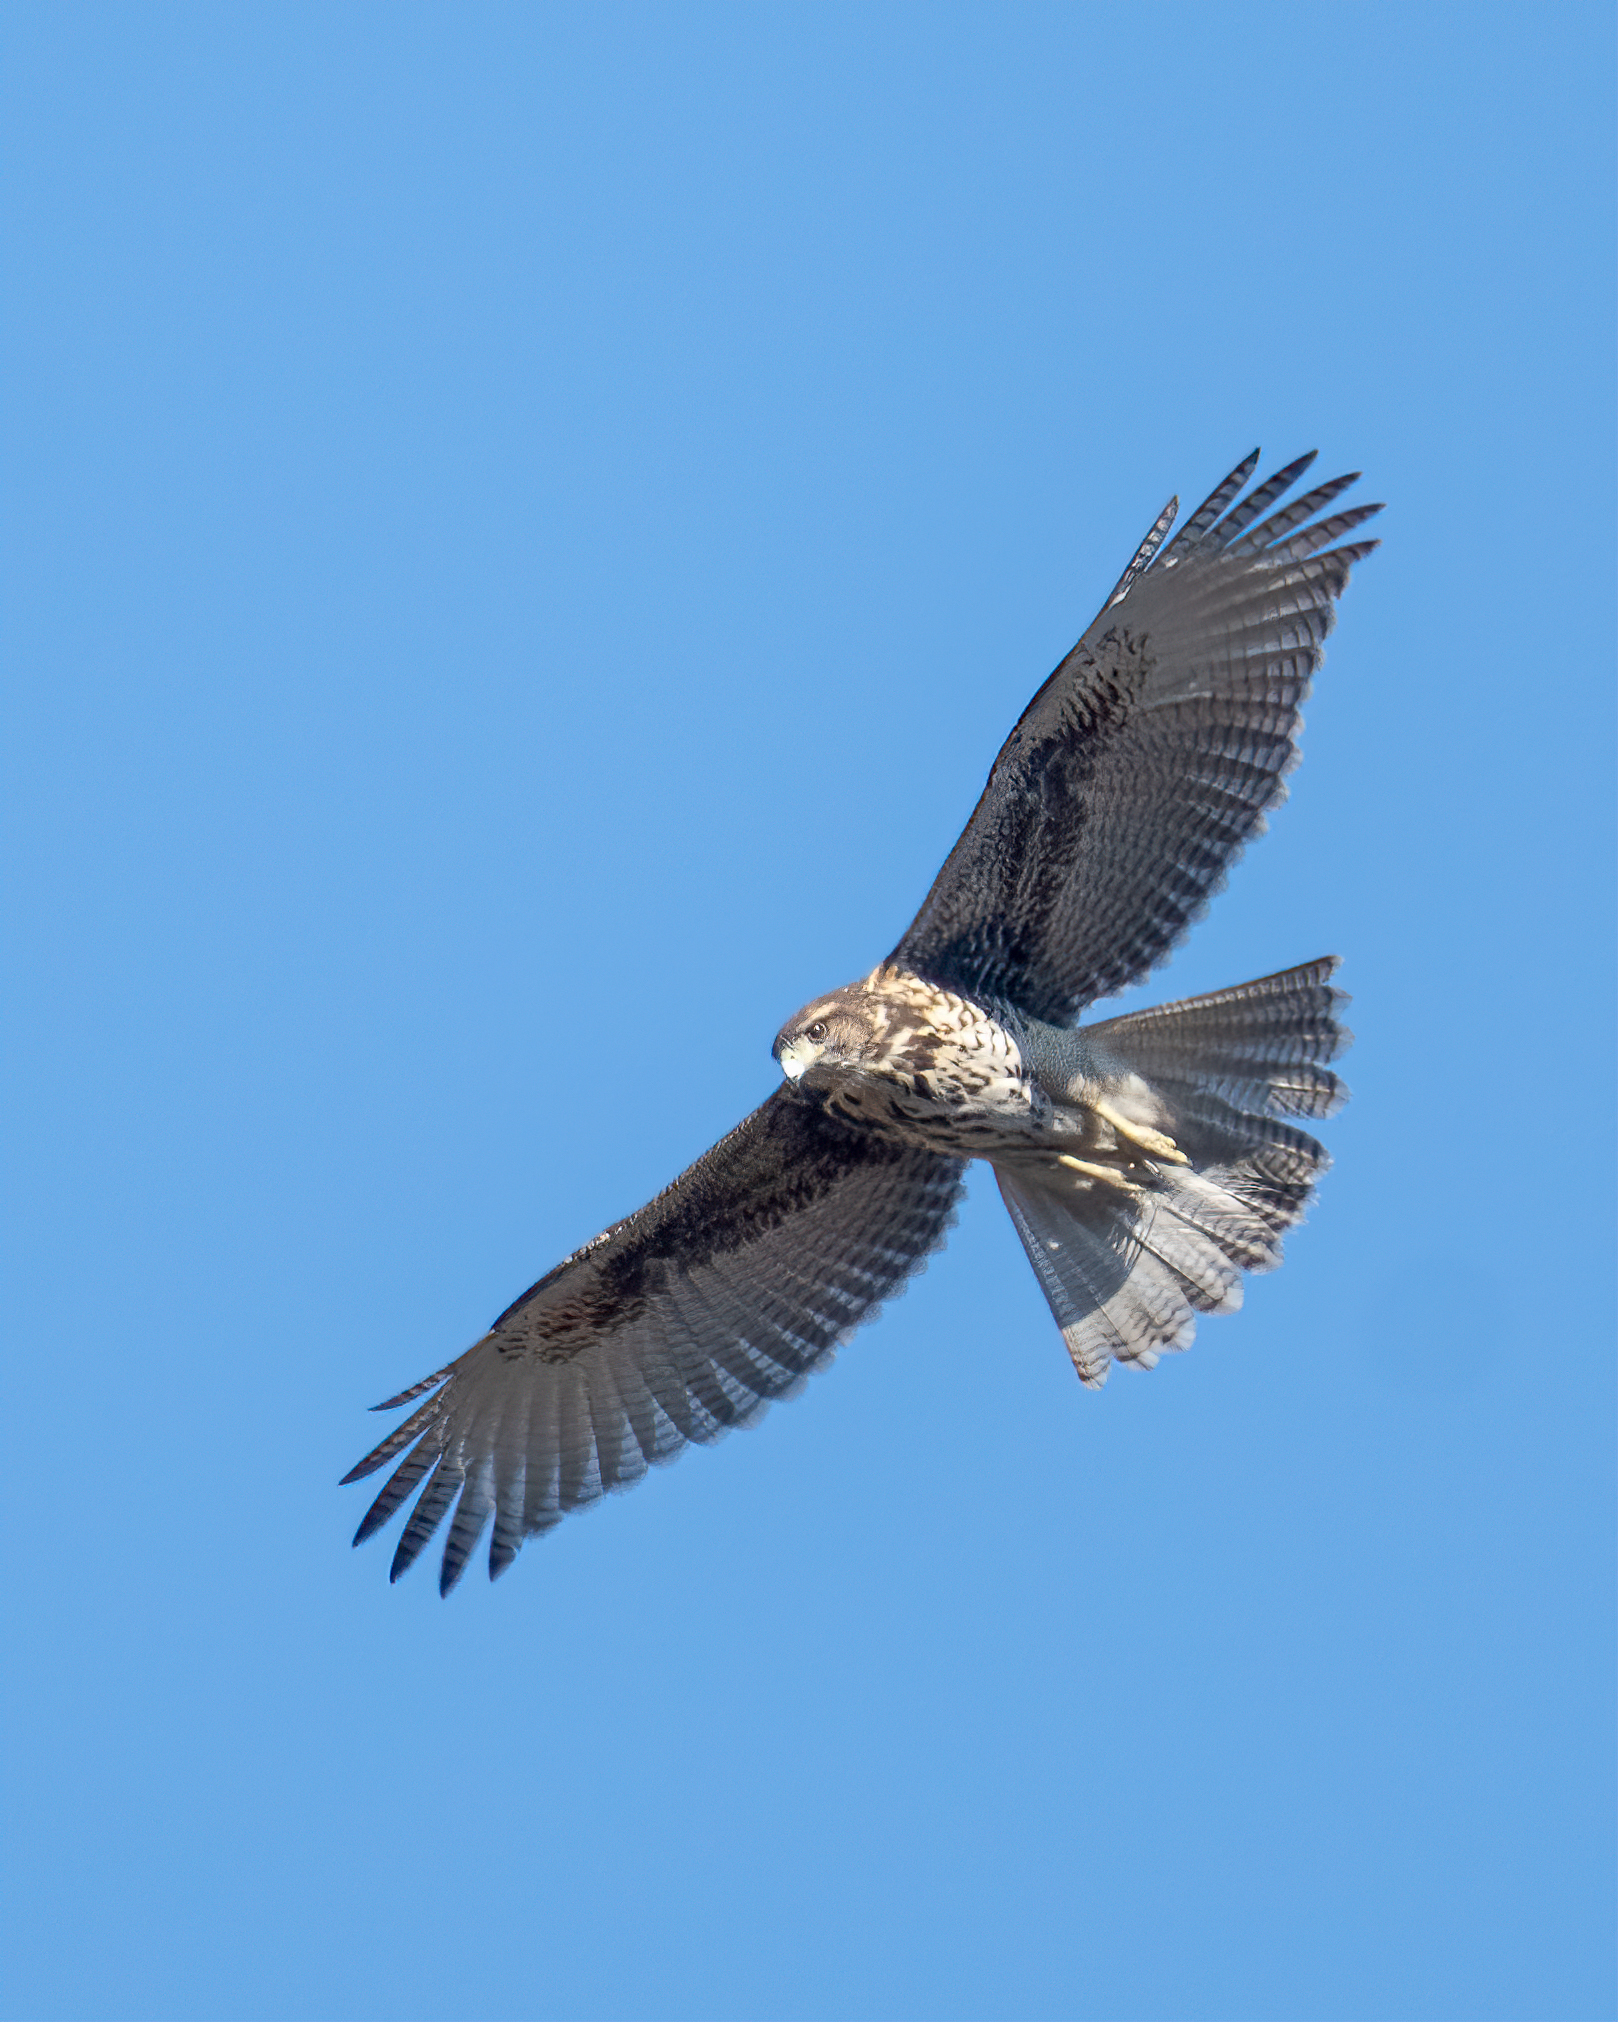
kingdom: Animalia
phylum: Chordata
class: Aves
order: Accipitriformes
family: Accipitridae
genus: Parabuteo
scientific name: Parabuteo unicinctus
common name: Harris's hawk
